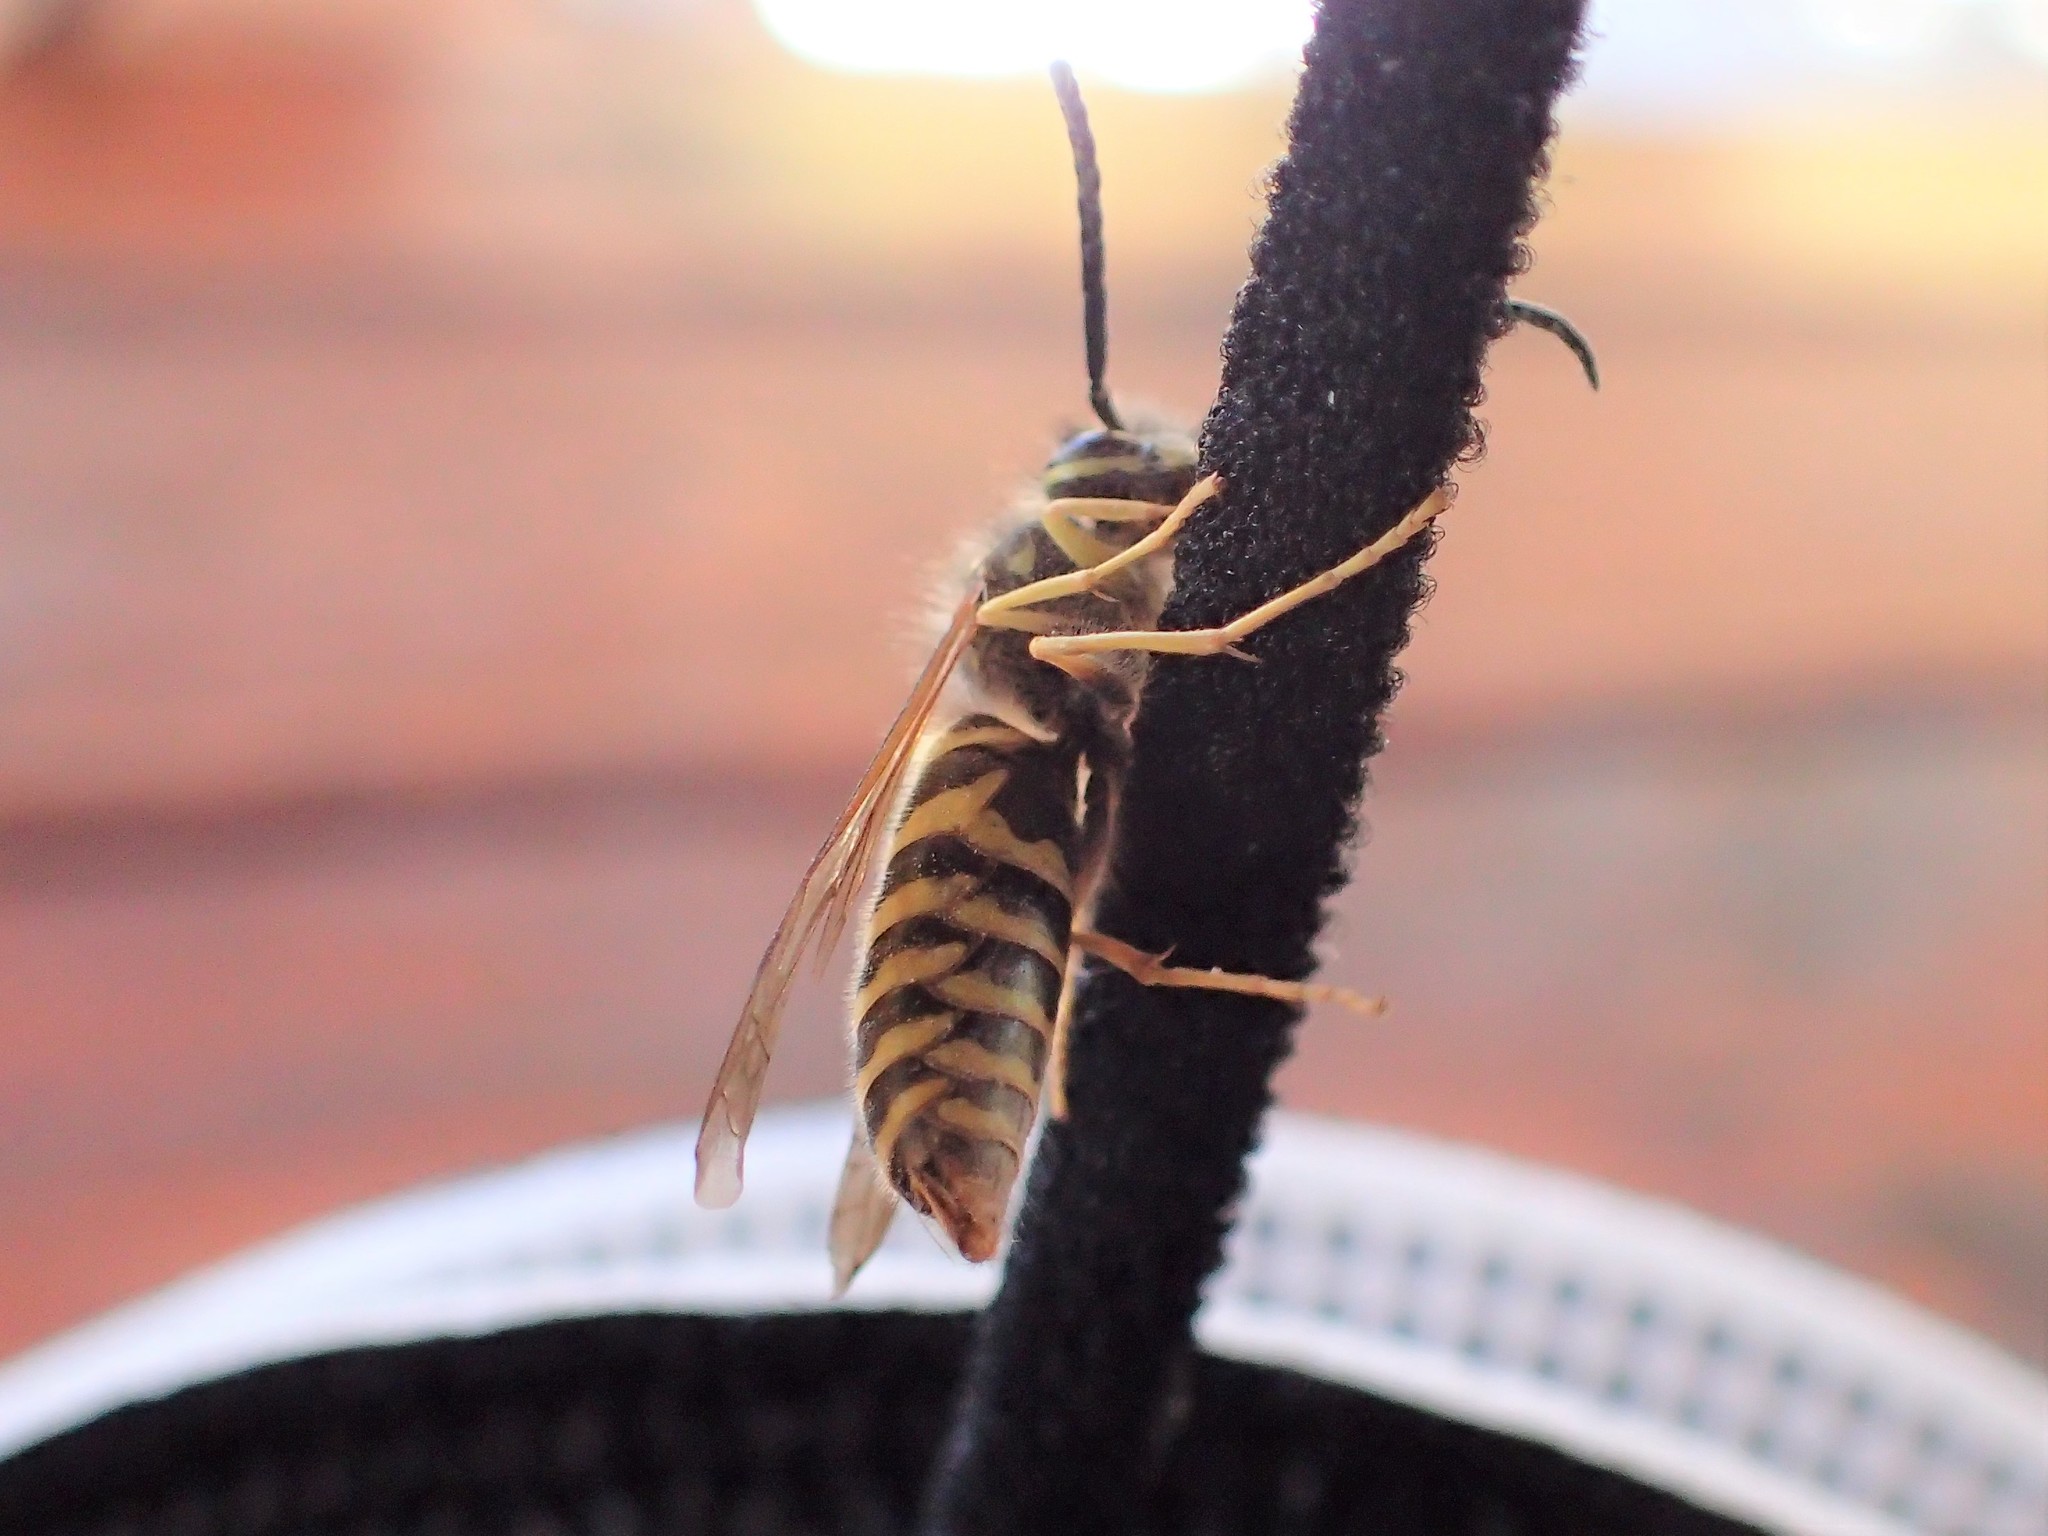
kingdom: Animalia
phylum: Arthropoda
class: Insecta
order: Hymenoptera
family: Vespidae
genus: Vespula
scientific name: Vespula maculifrons
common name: Eastern yellowjacket
